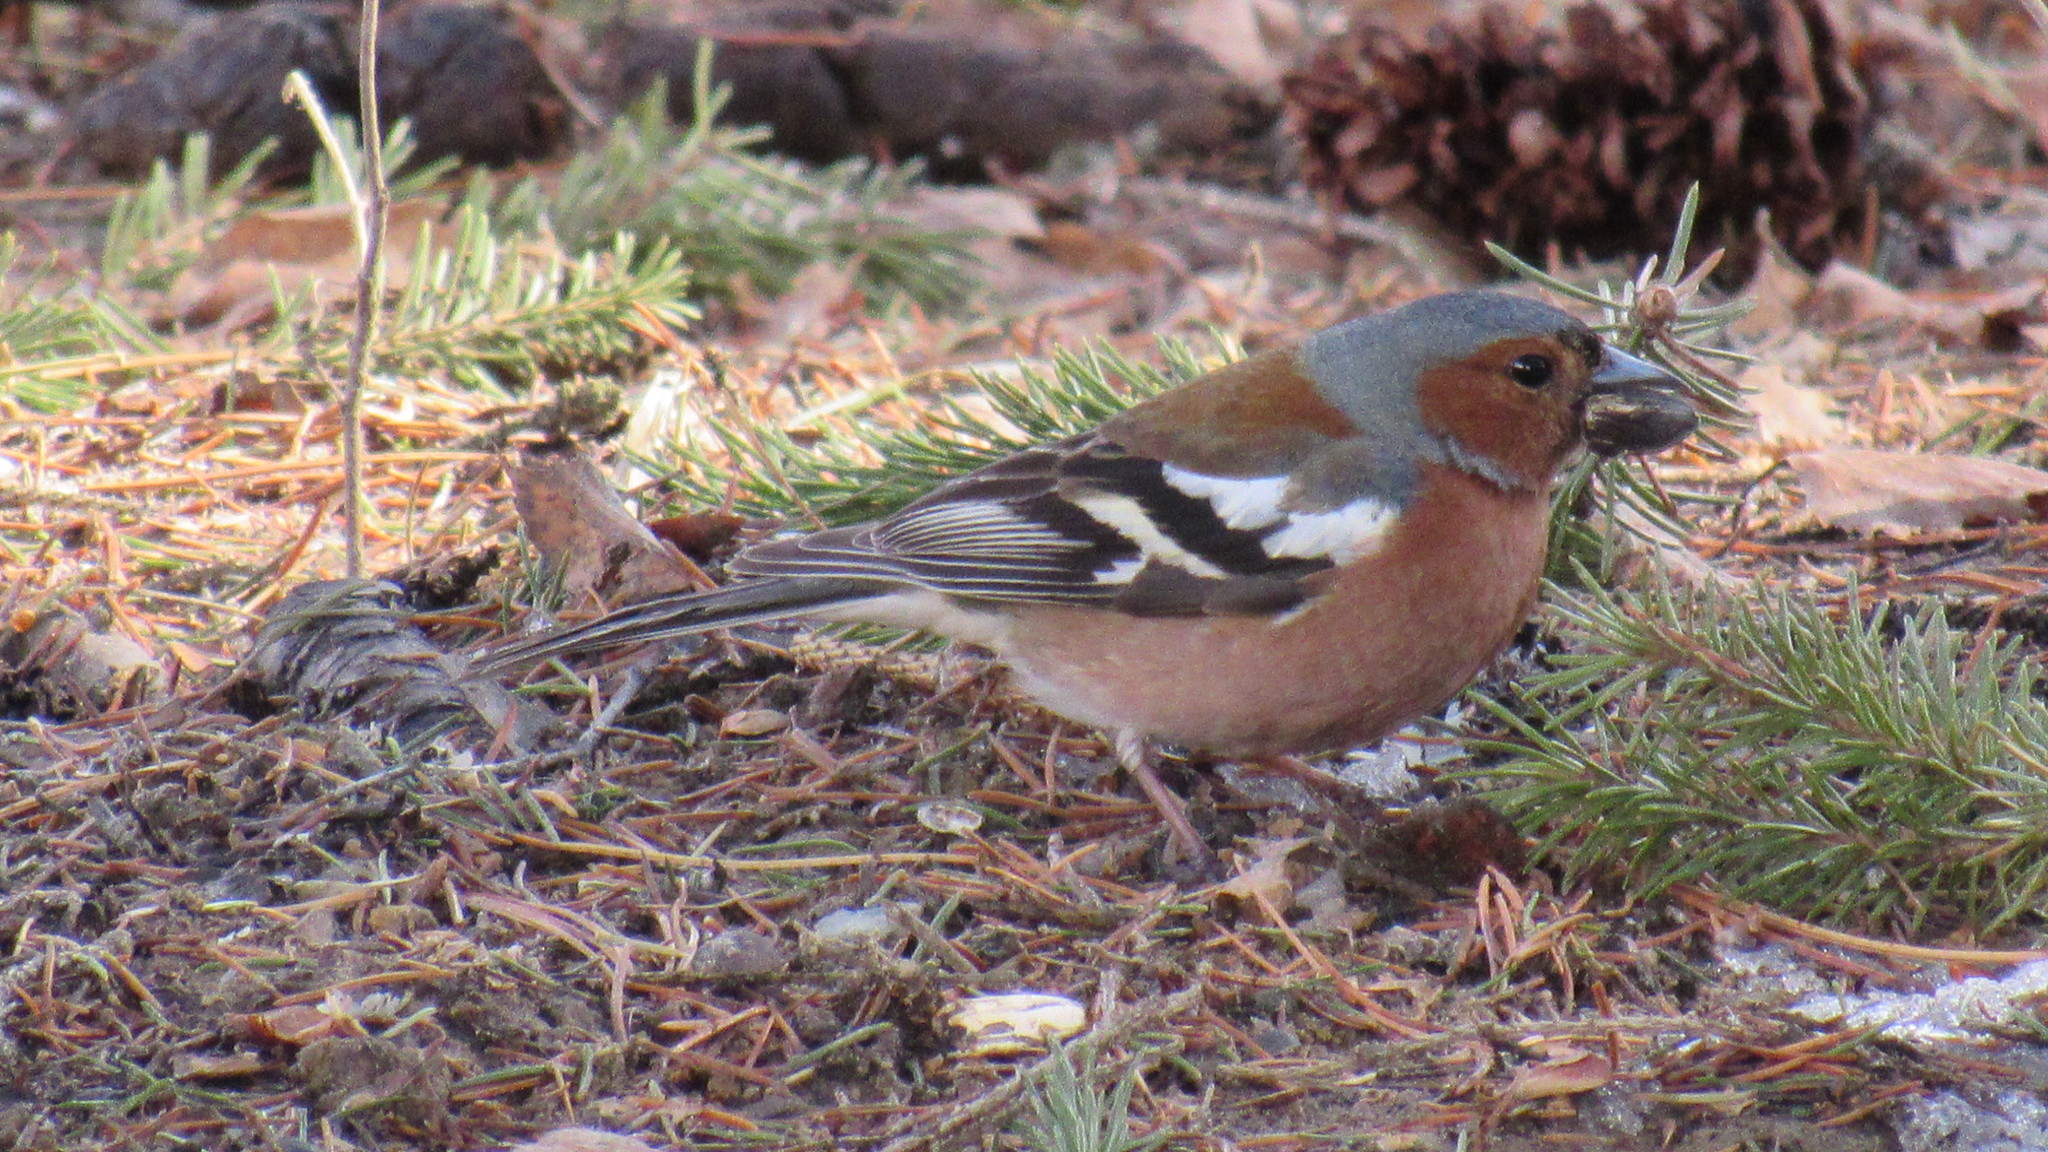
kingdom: Animalia
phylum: Chordata
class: Aves
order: Passeriformes
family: Fringillidae
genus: Fringilla
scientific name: Fringilla coelebs
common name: Common chaffinch
